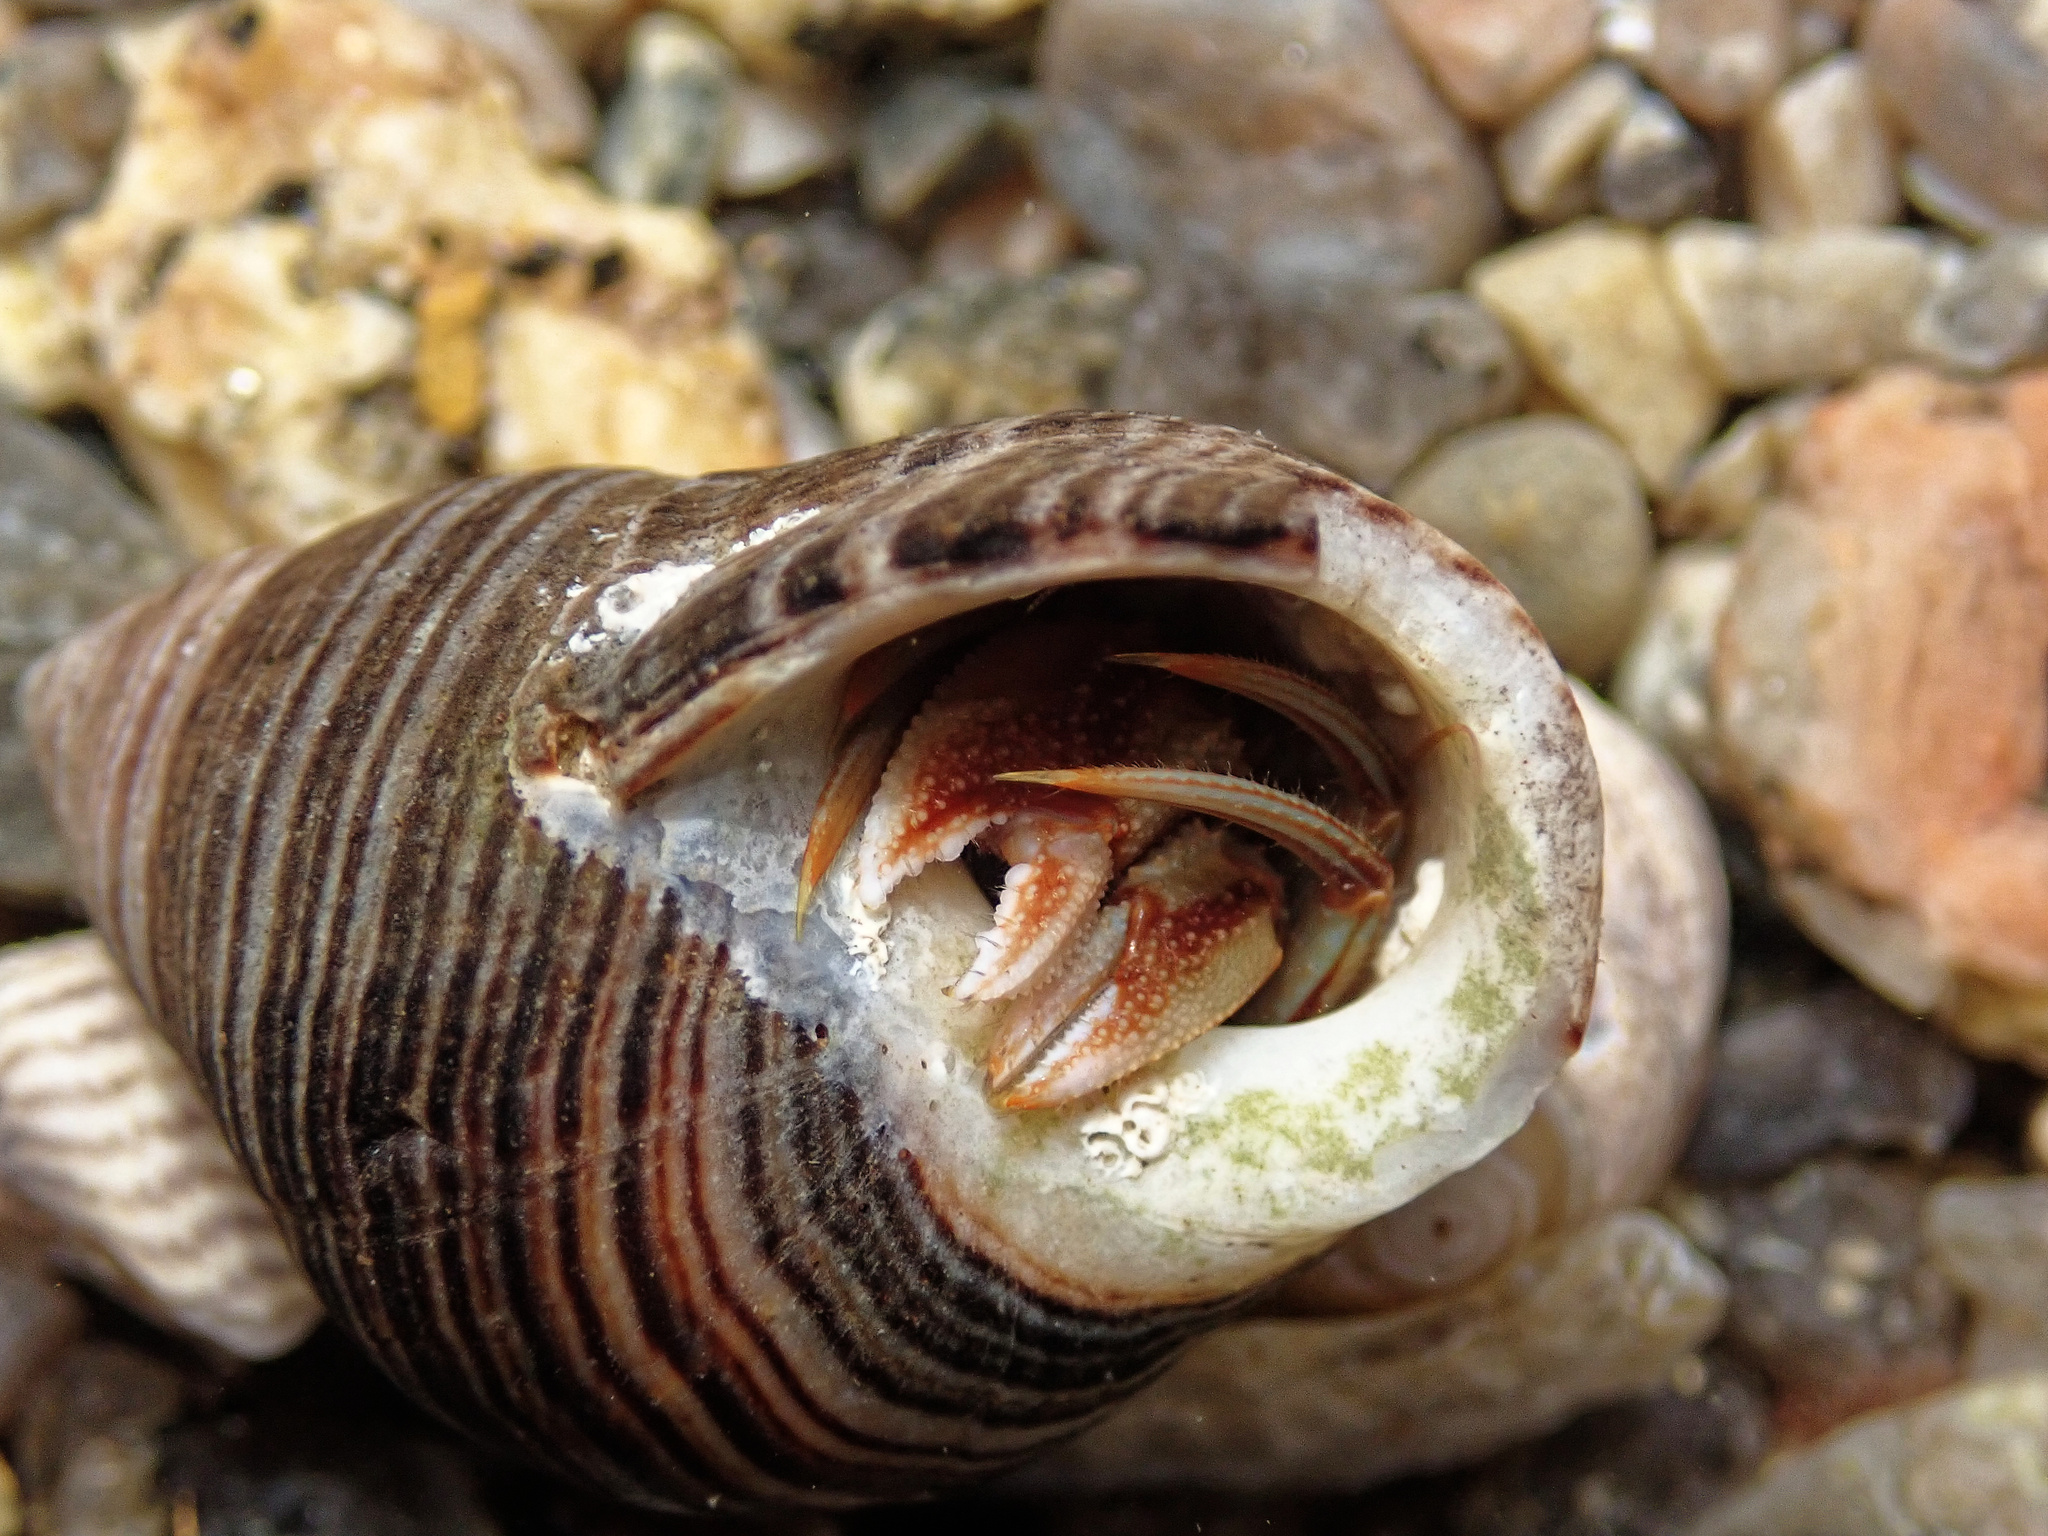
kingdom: Animalia
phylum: Arthropoda
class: Malacostraca
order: Decapoda
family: Paguridae
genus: Pagurus
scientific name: Pagurus bernhardus
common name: Hermit crab
